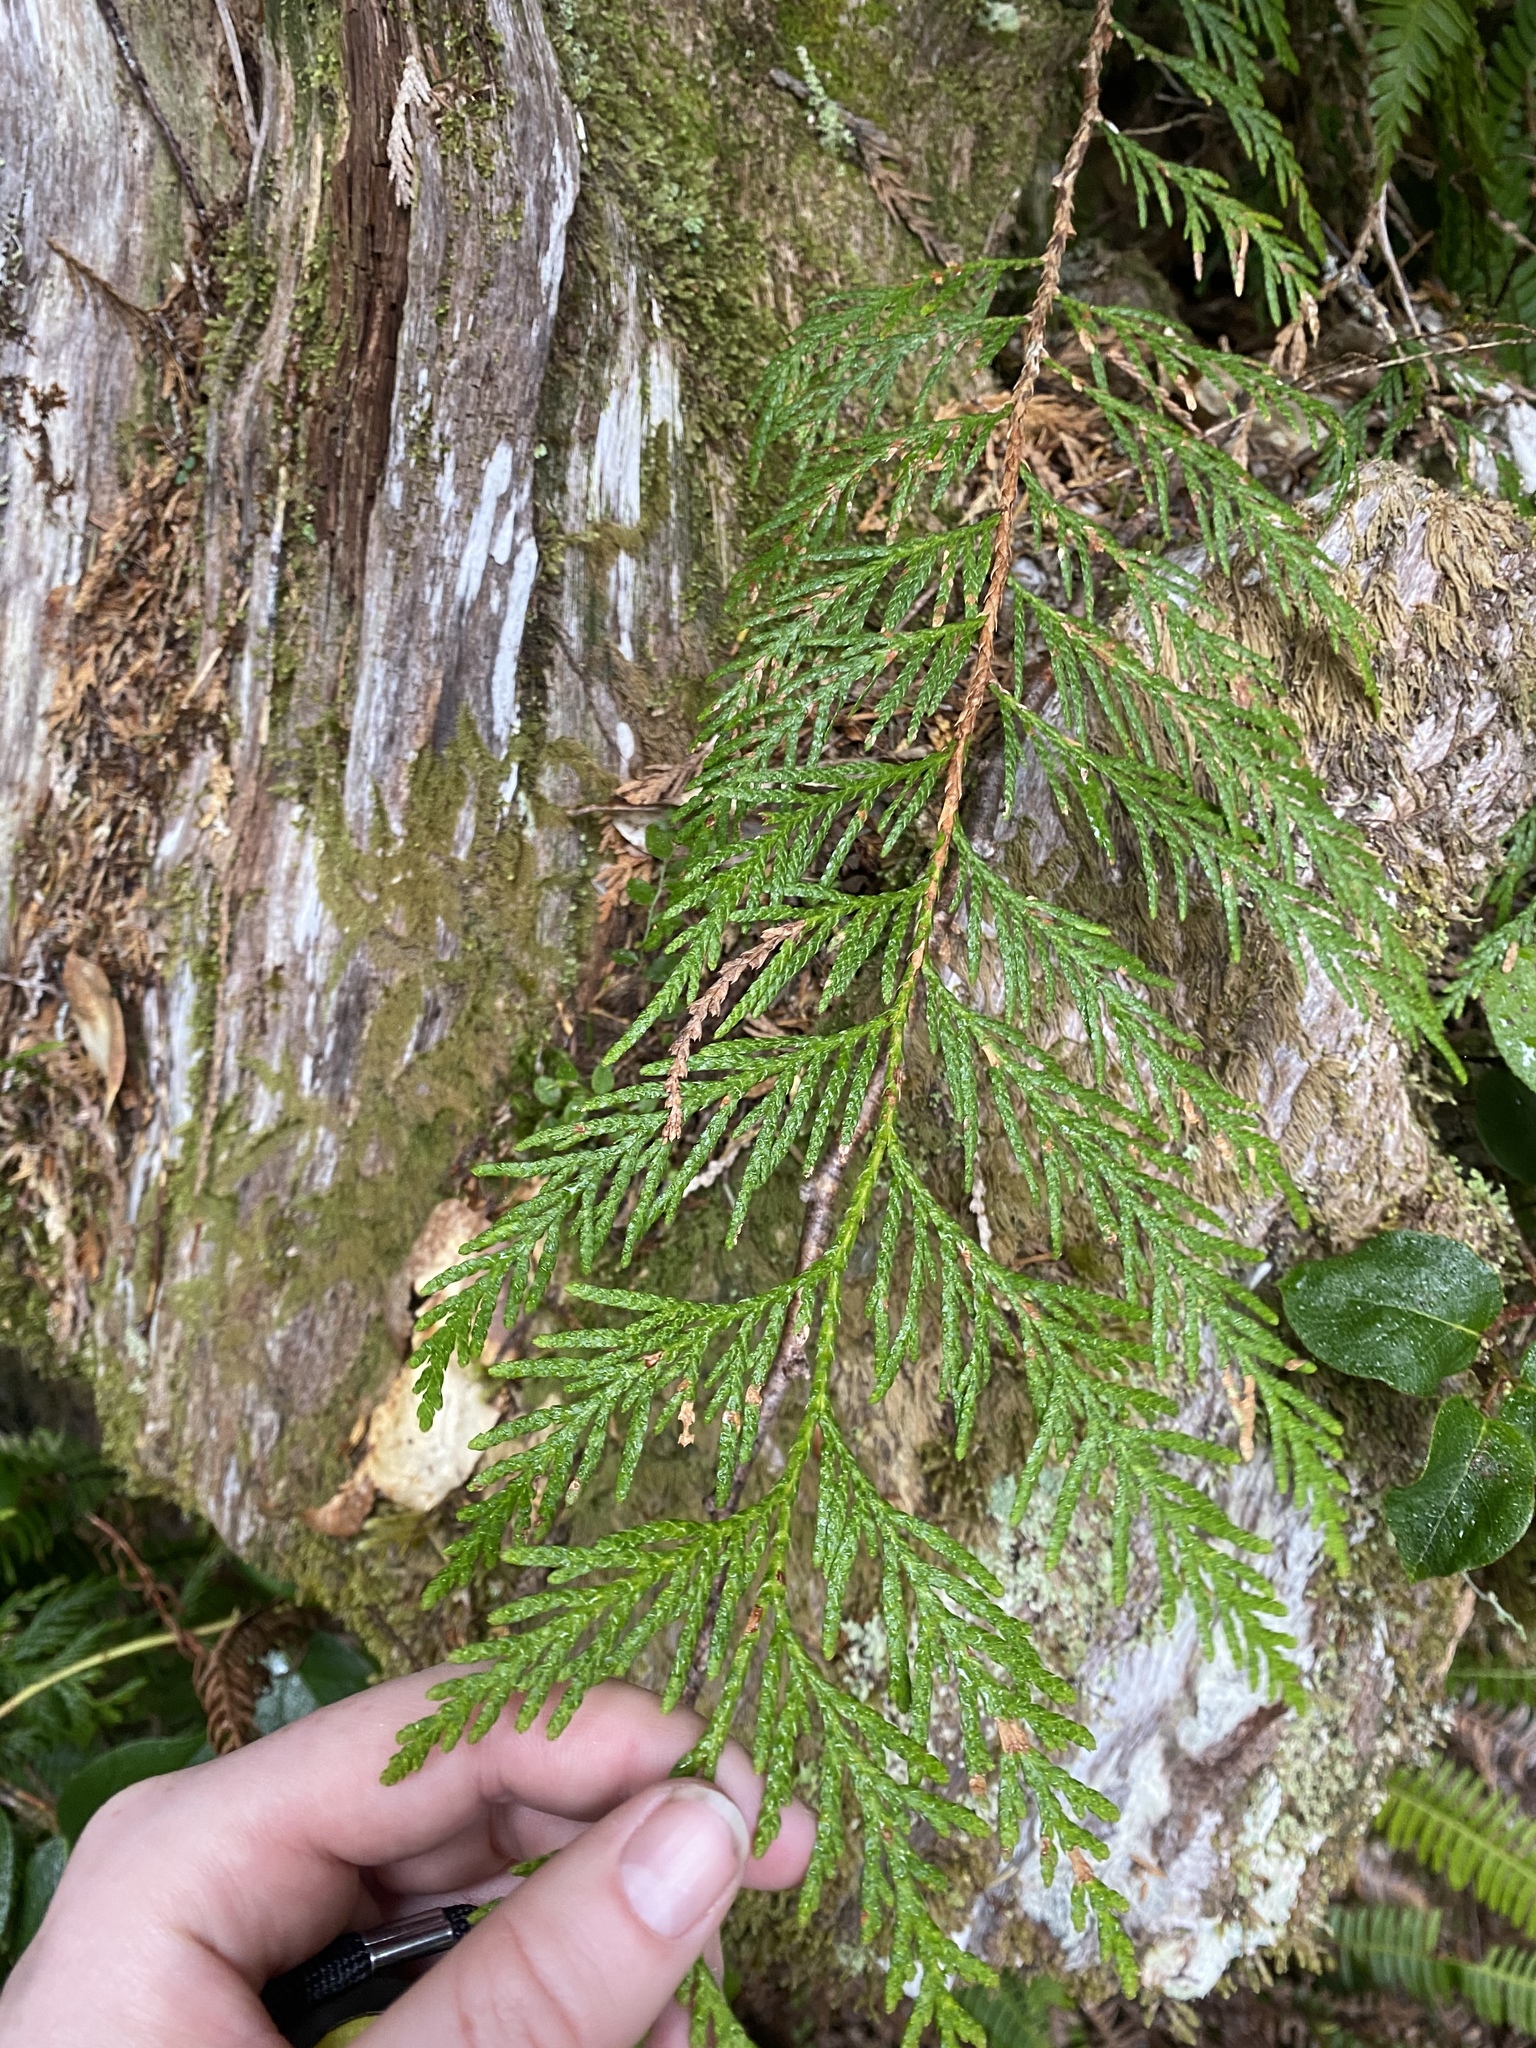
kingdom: Plantae
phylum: Tracheophyta
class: Pinopsida
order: Pinales
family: Cupressaceae
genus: Thuja
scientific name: Thuja plicata
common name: Western red-cedar
